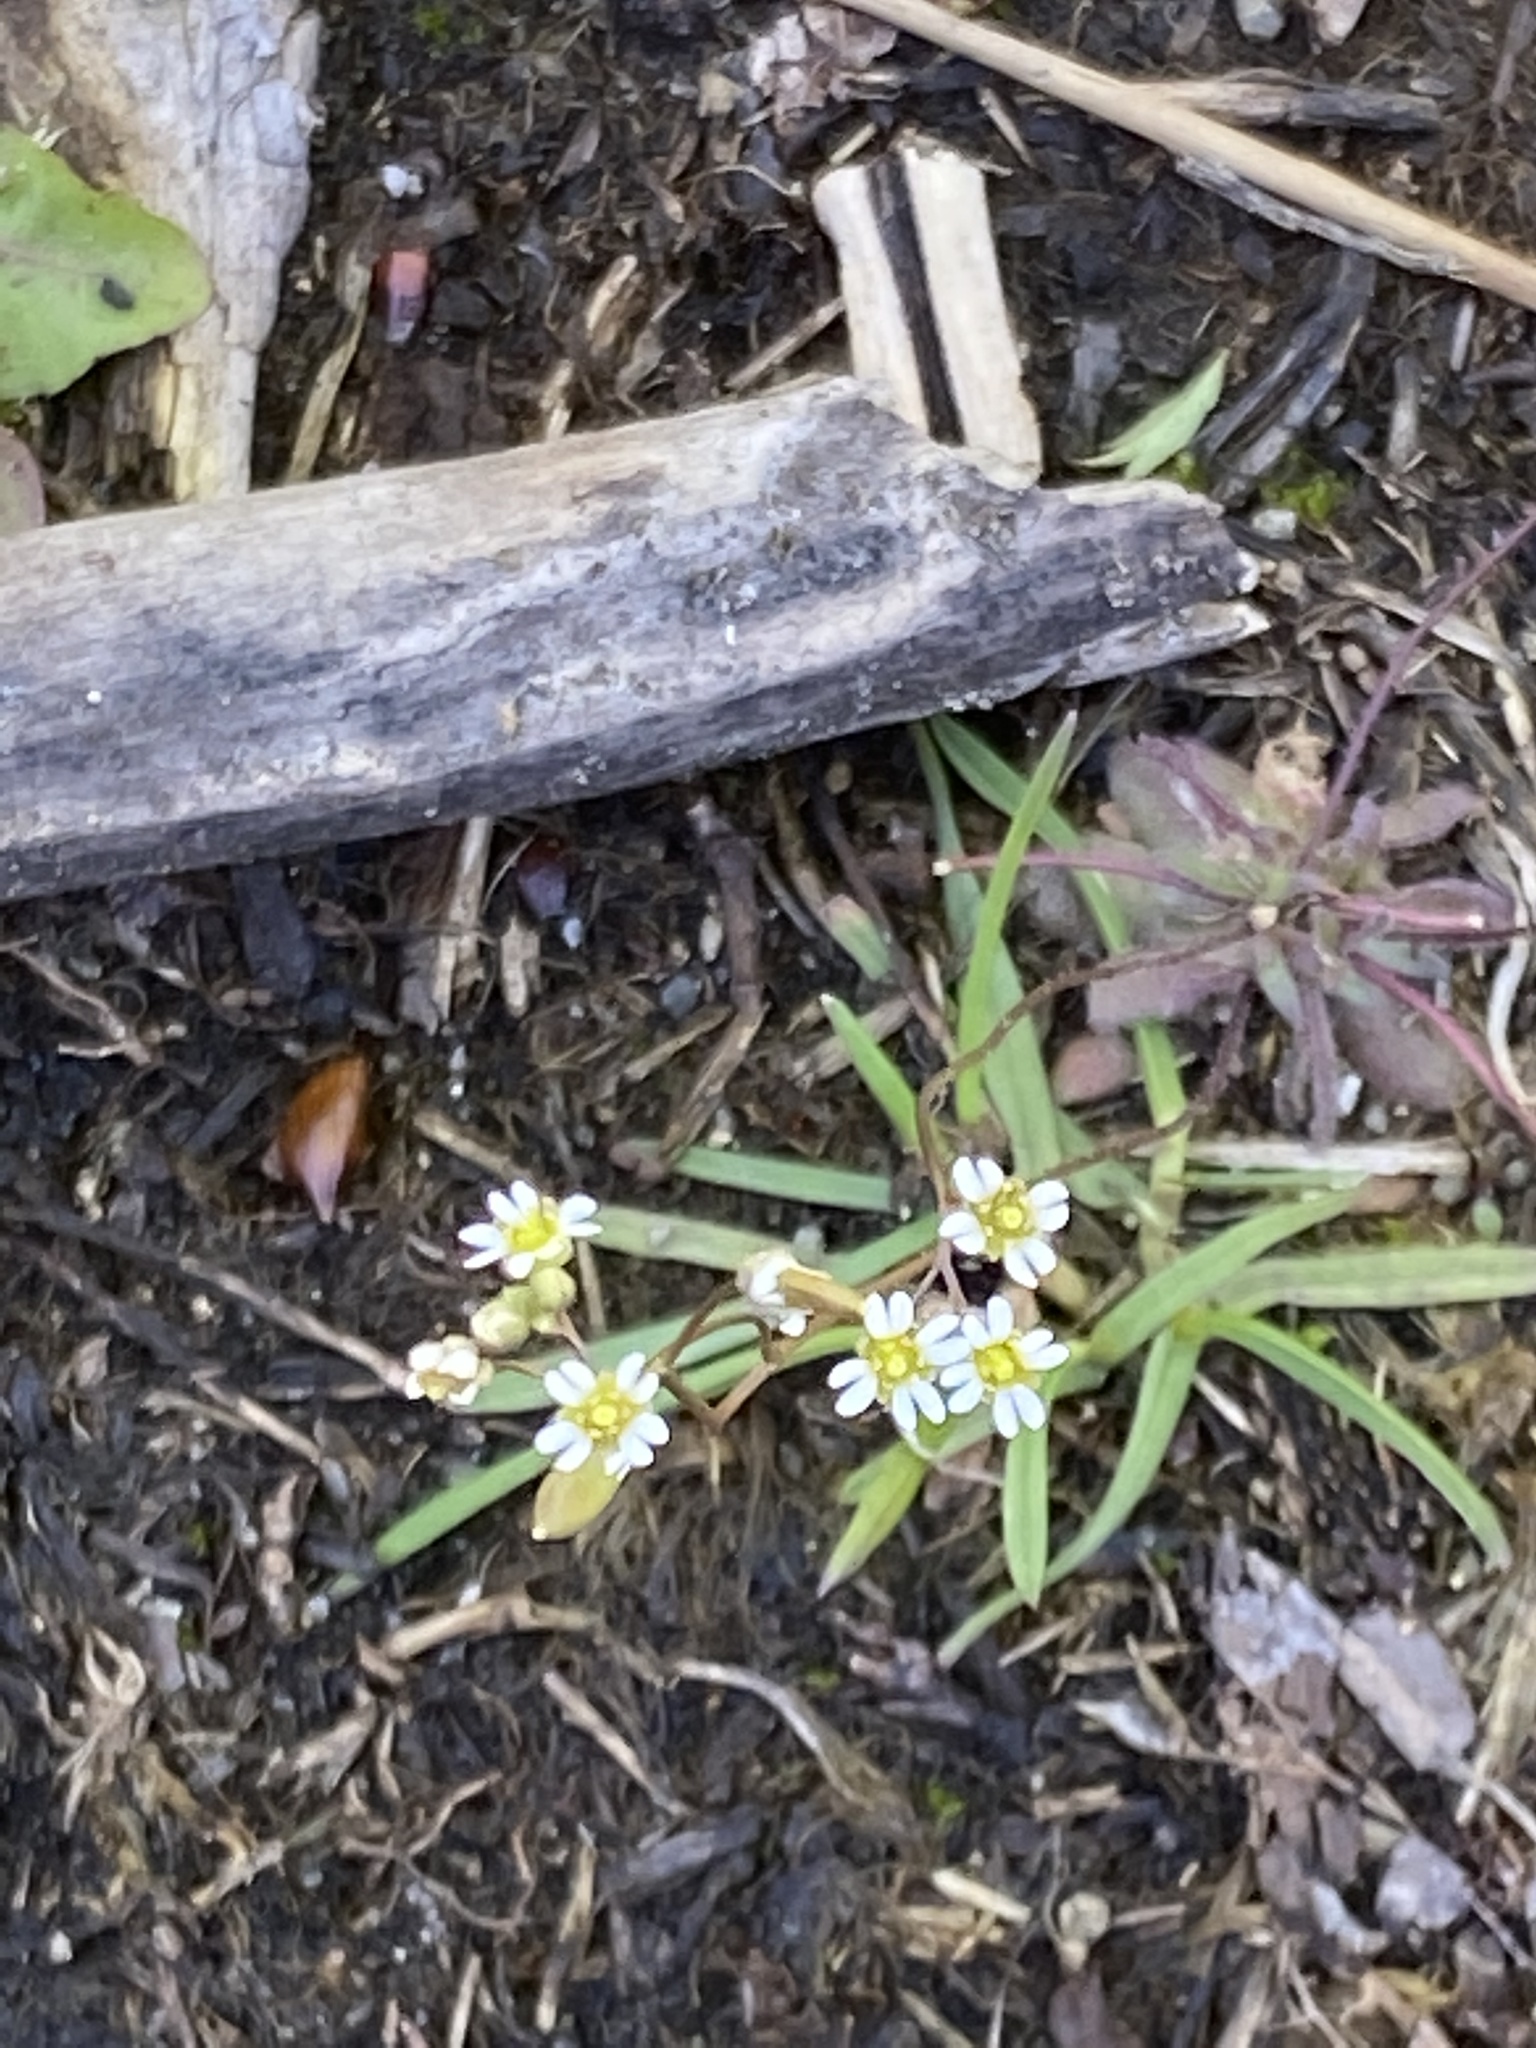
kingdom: Plantae
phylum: Tracheophyta
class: Magnoliopsida
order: Brassicales
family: Brassicaceae
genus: Draba
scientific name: Draba verna
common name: Spring draba
